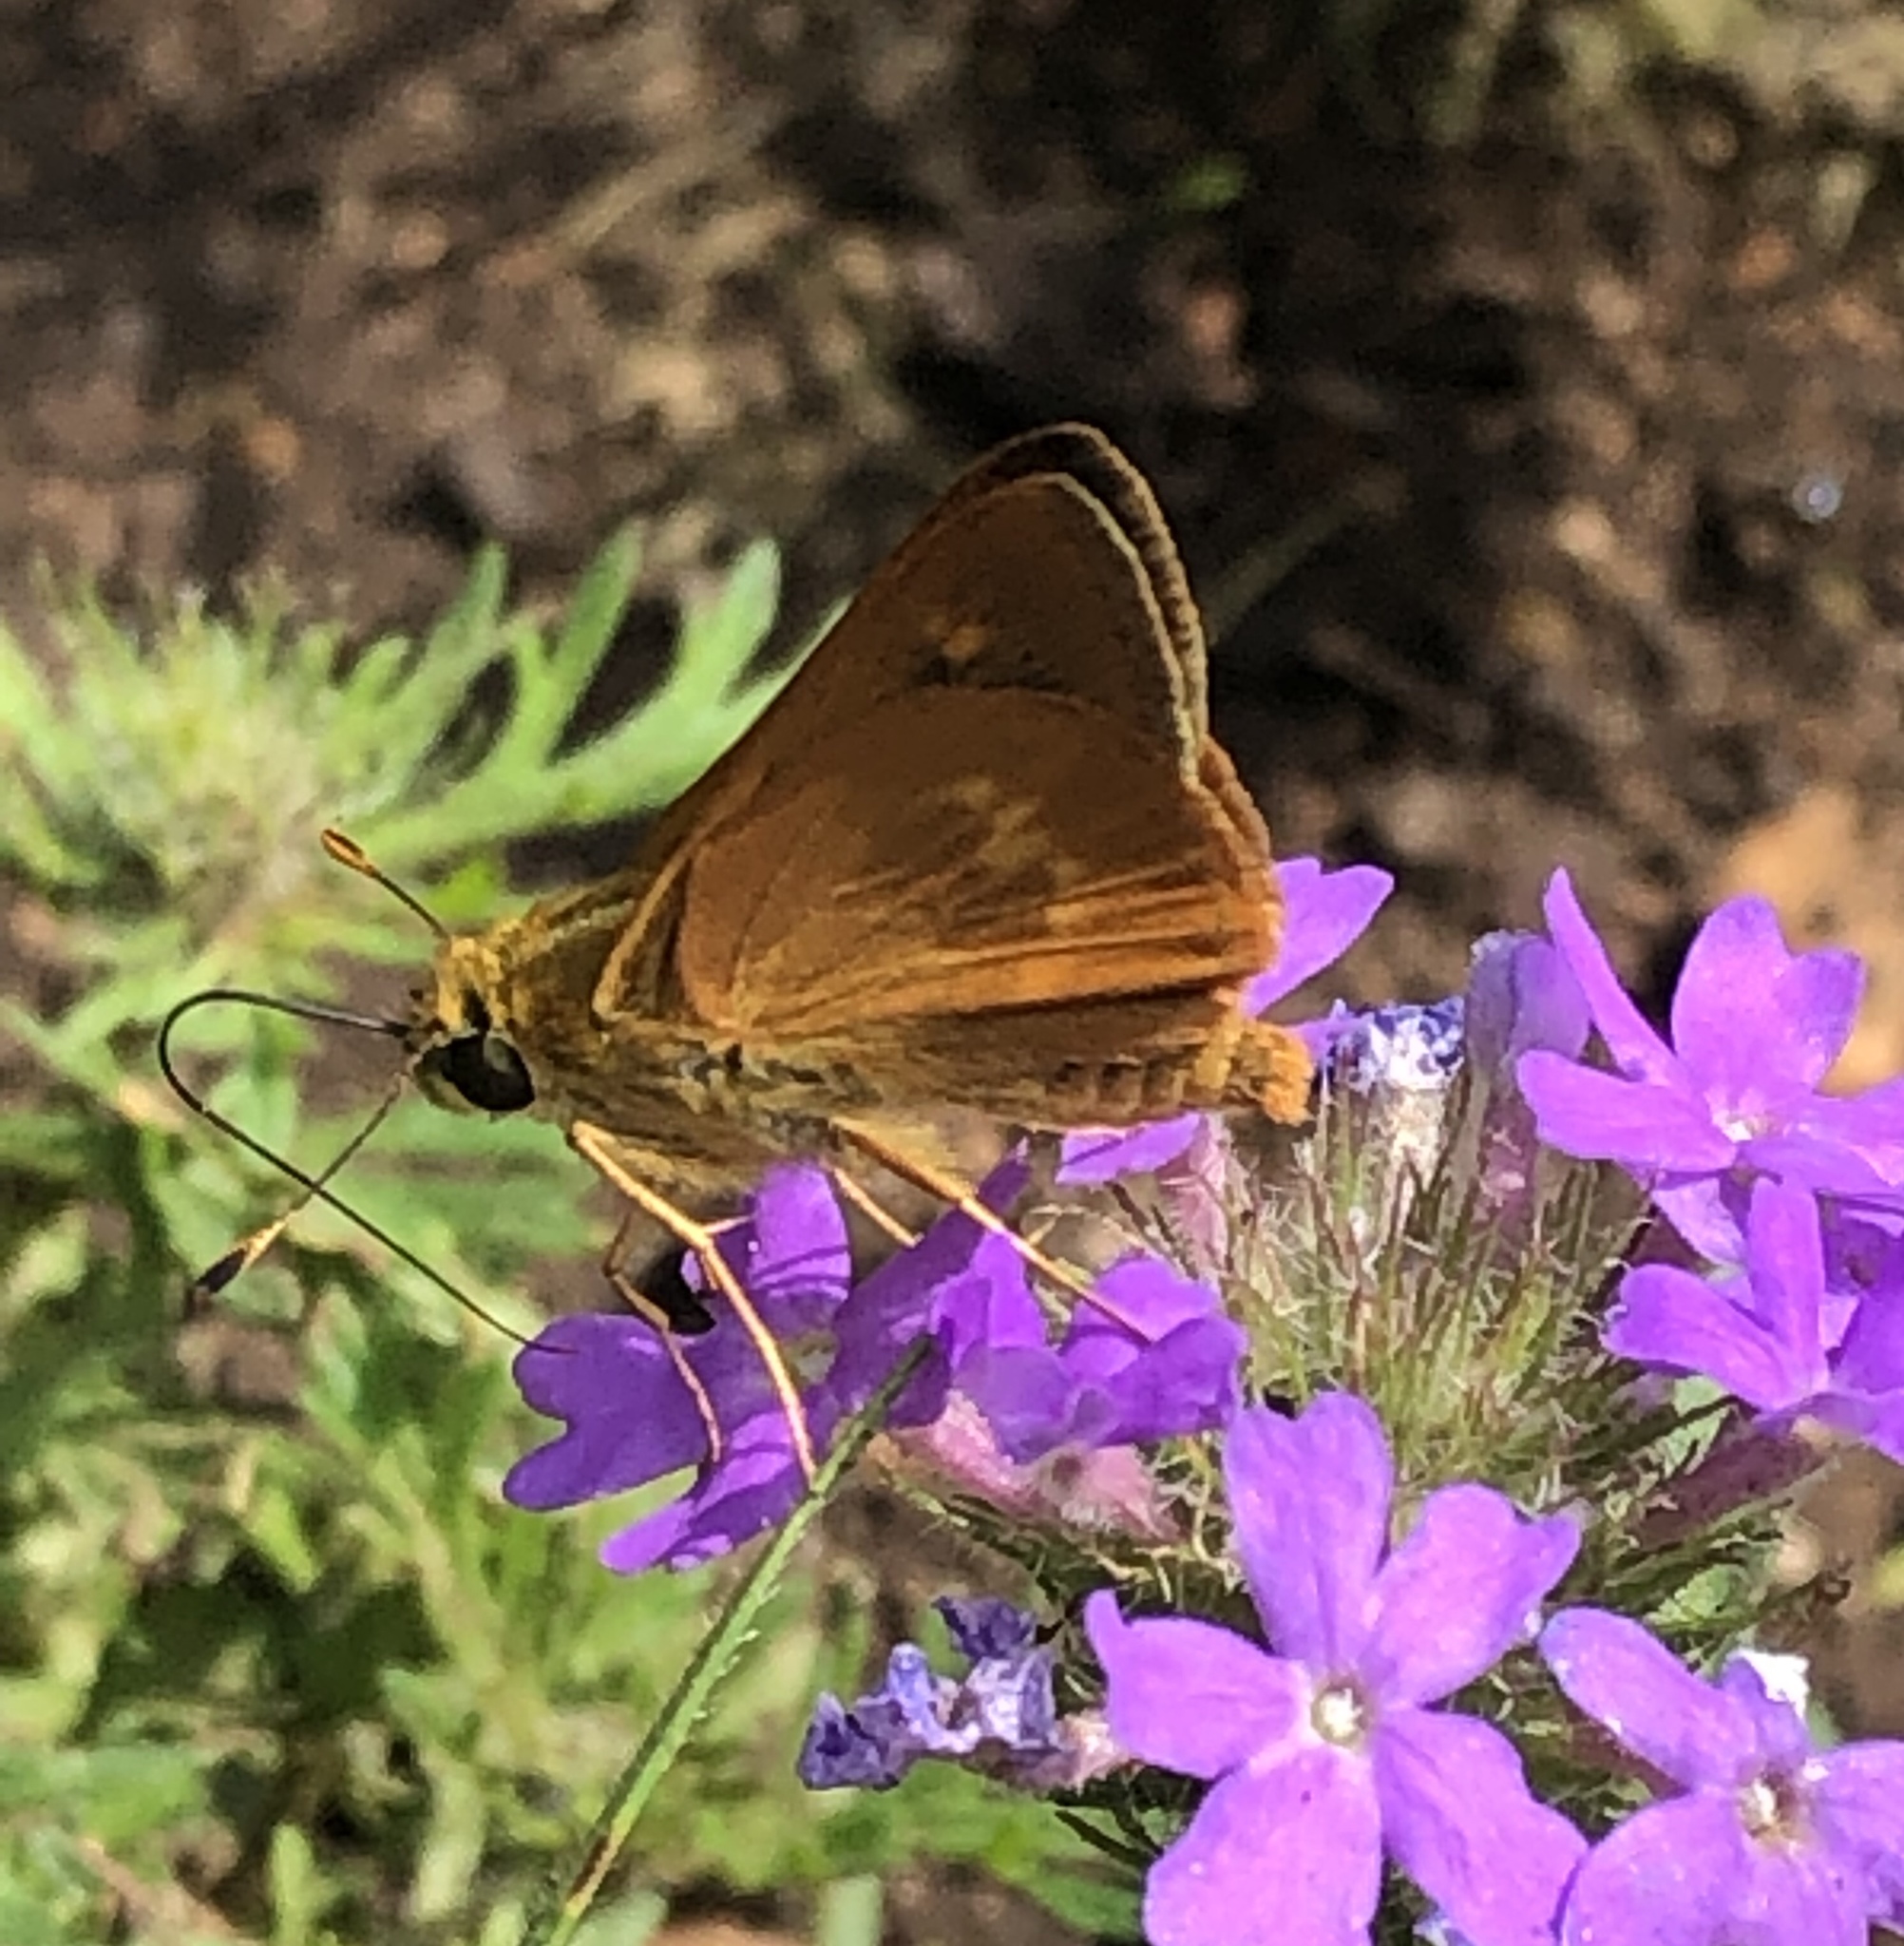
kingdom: Animalia
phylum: Arthropoda
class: Insecta
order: Lepidoptera
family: Hesperiidae
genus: Polites
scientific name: Polites otho
